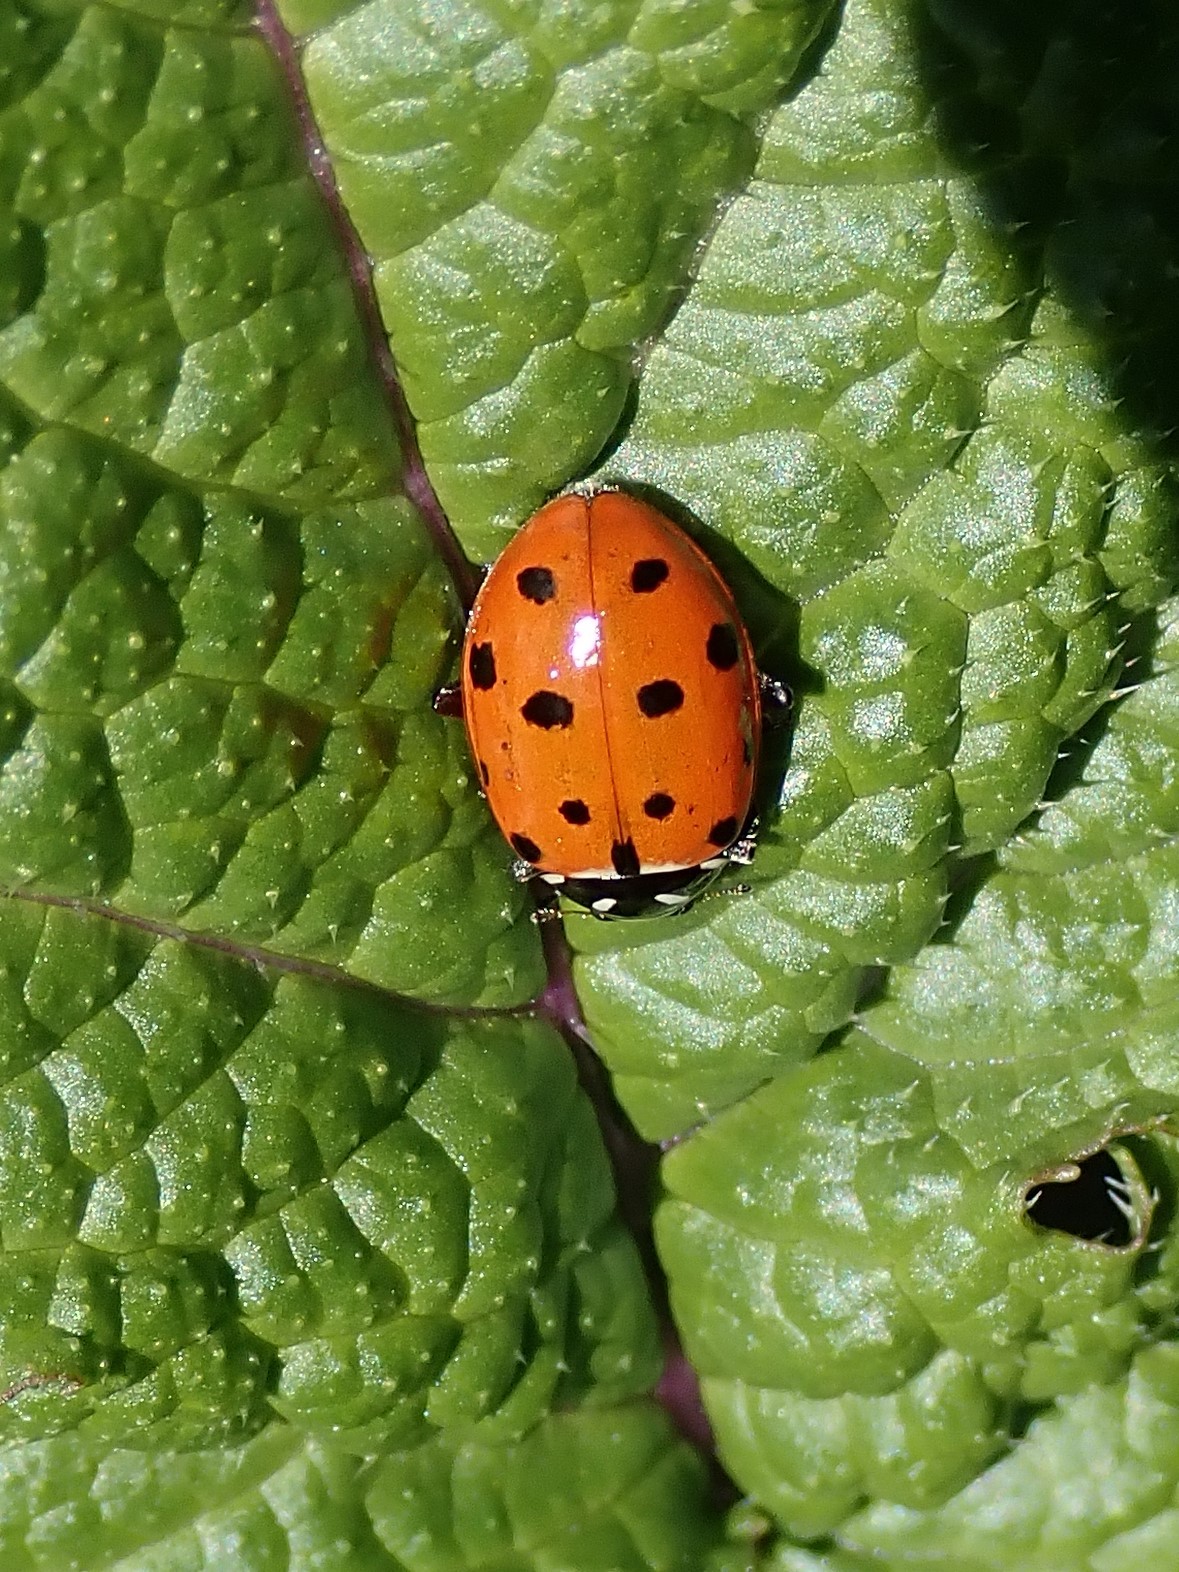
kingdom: Animalia
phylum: Arthropoda
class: Insecta
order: Coleoptera
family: Coccinellidae
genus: Hippodamia
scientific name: Hippodamia convergens
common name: Convergent lady beetle
